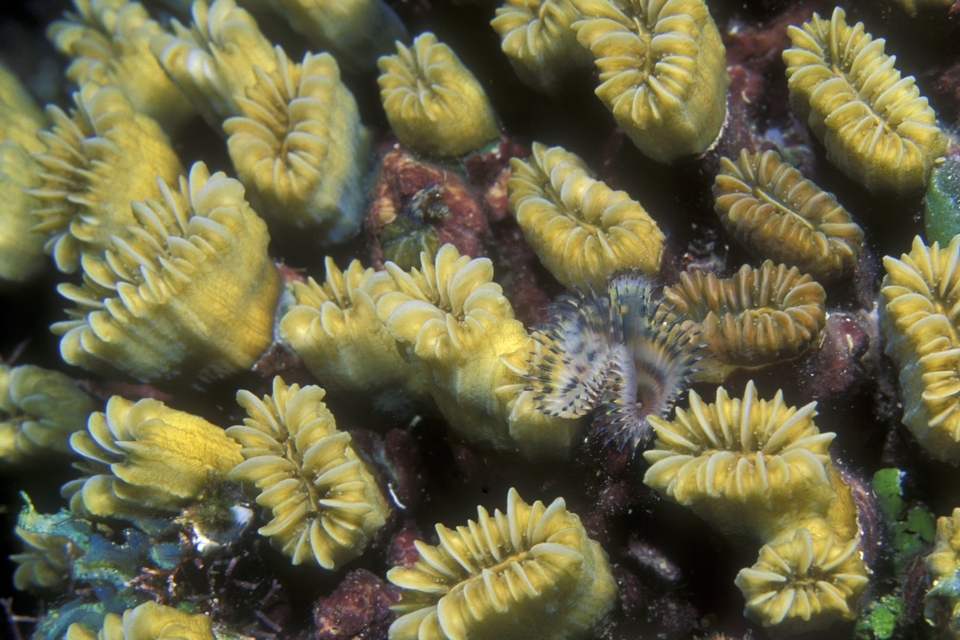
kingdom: Animalia
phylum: Cnidaria
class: Anthozoa
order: Scleractinia
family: Meandrinidae
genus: Eusmilia
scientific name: Eusmilia fastigiata
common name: Smooth flower coral
